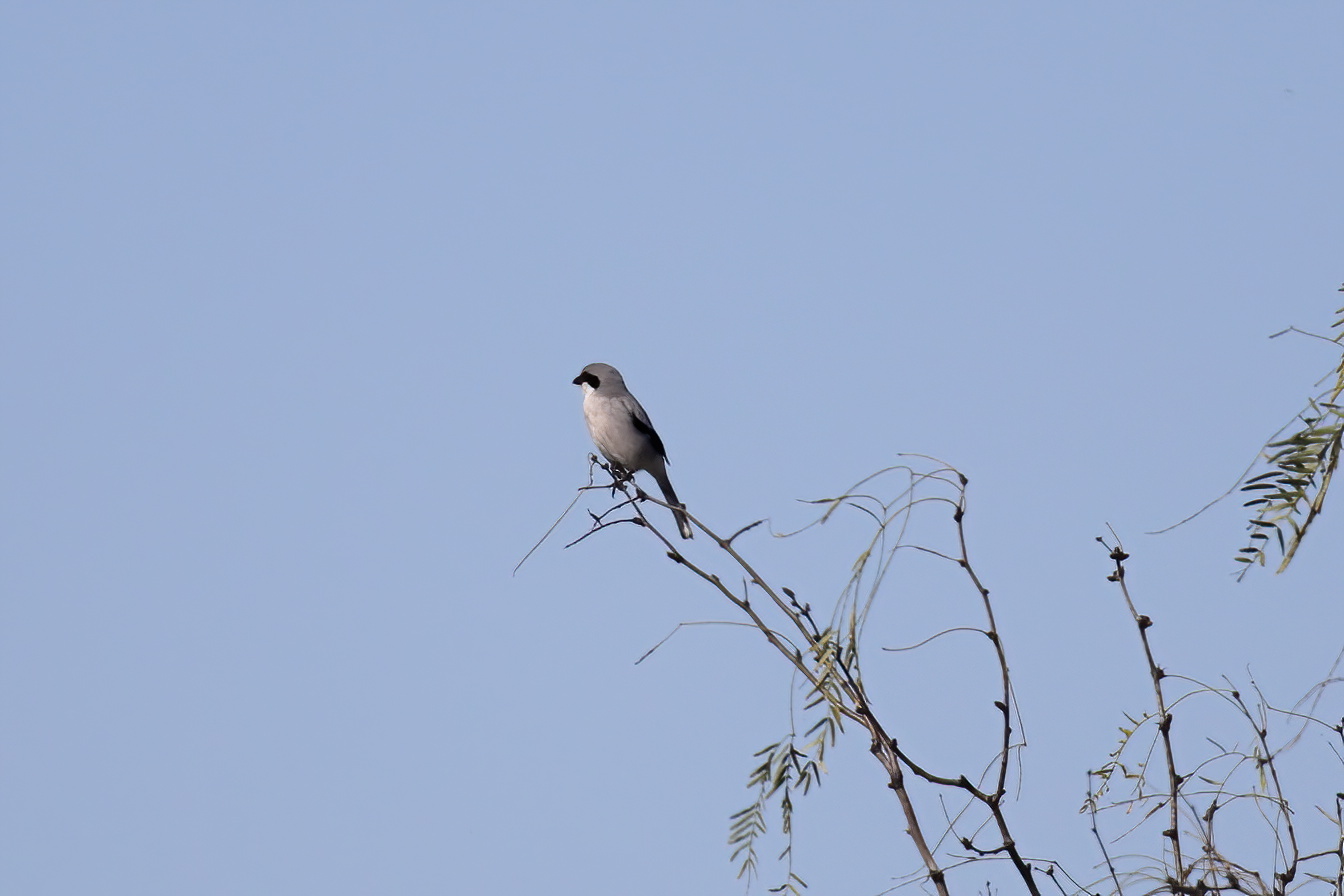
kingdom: Animalia
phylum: Chordata
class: Aves
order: Passeriformes
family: Laniidae
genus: Lanius
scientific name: Lanius ludovicianus
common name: Loggerhead shrike
